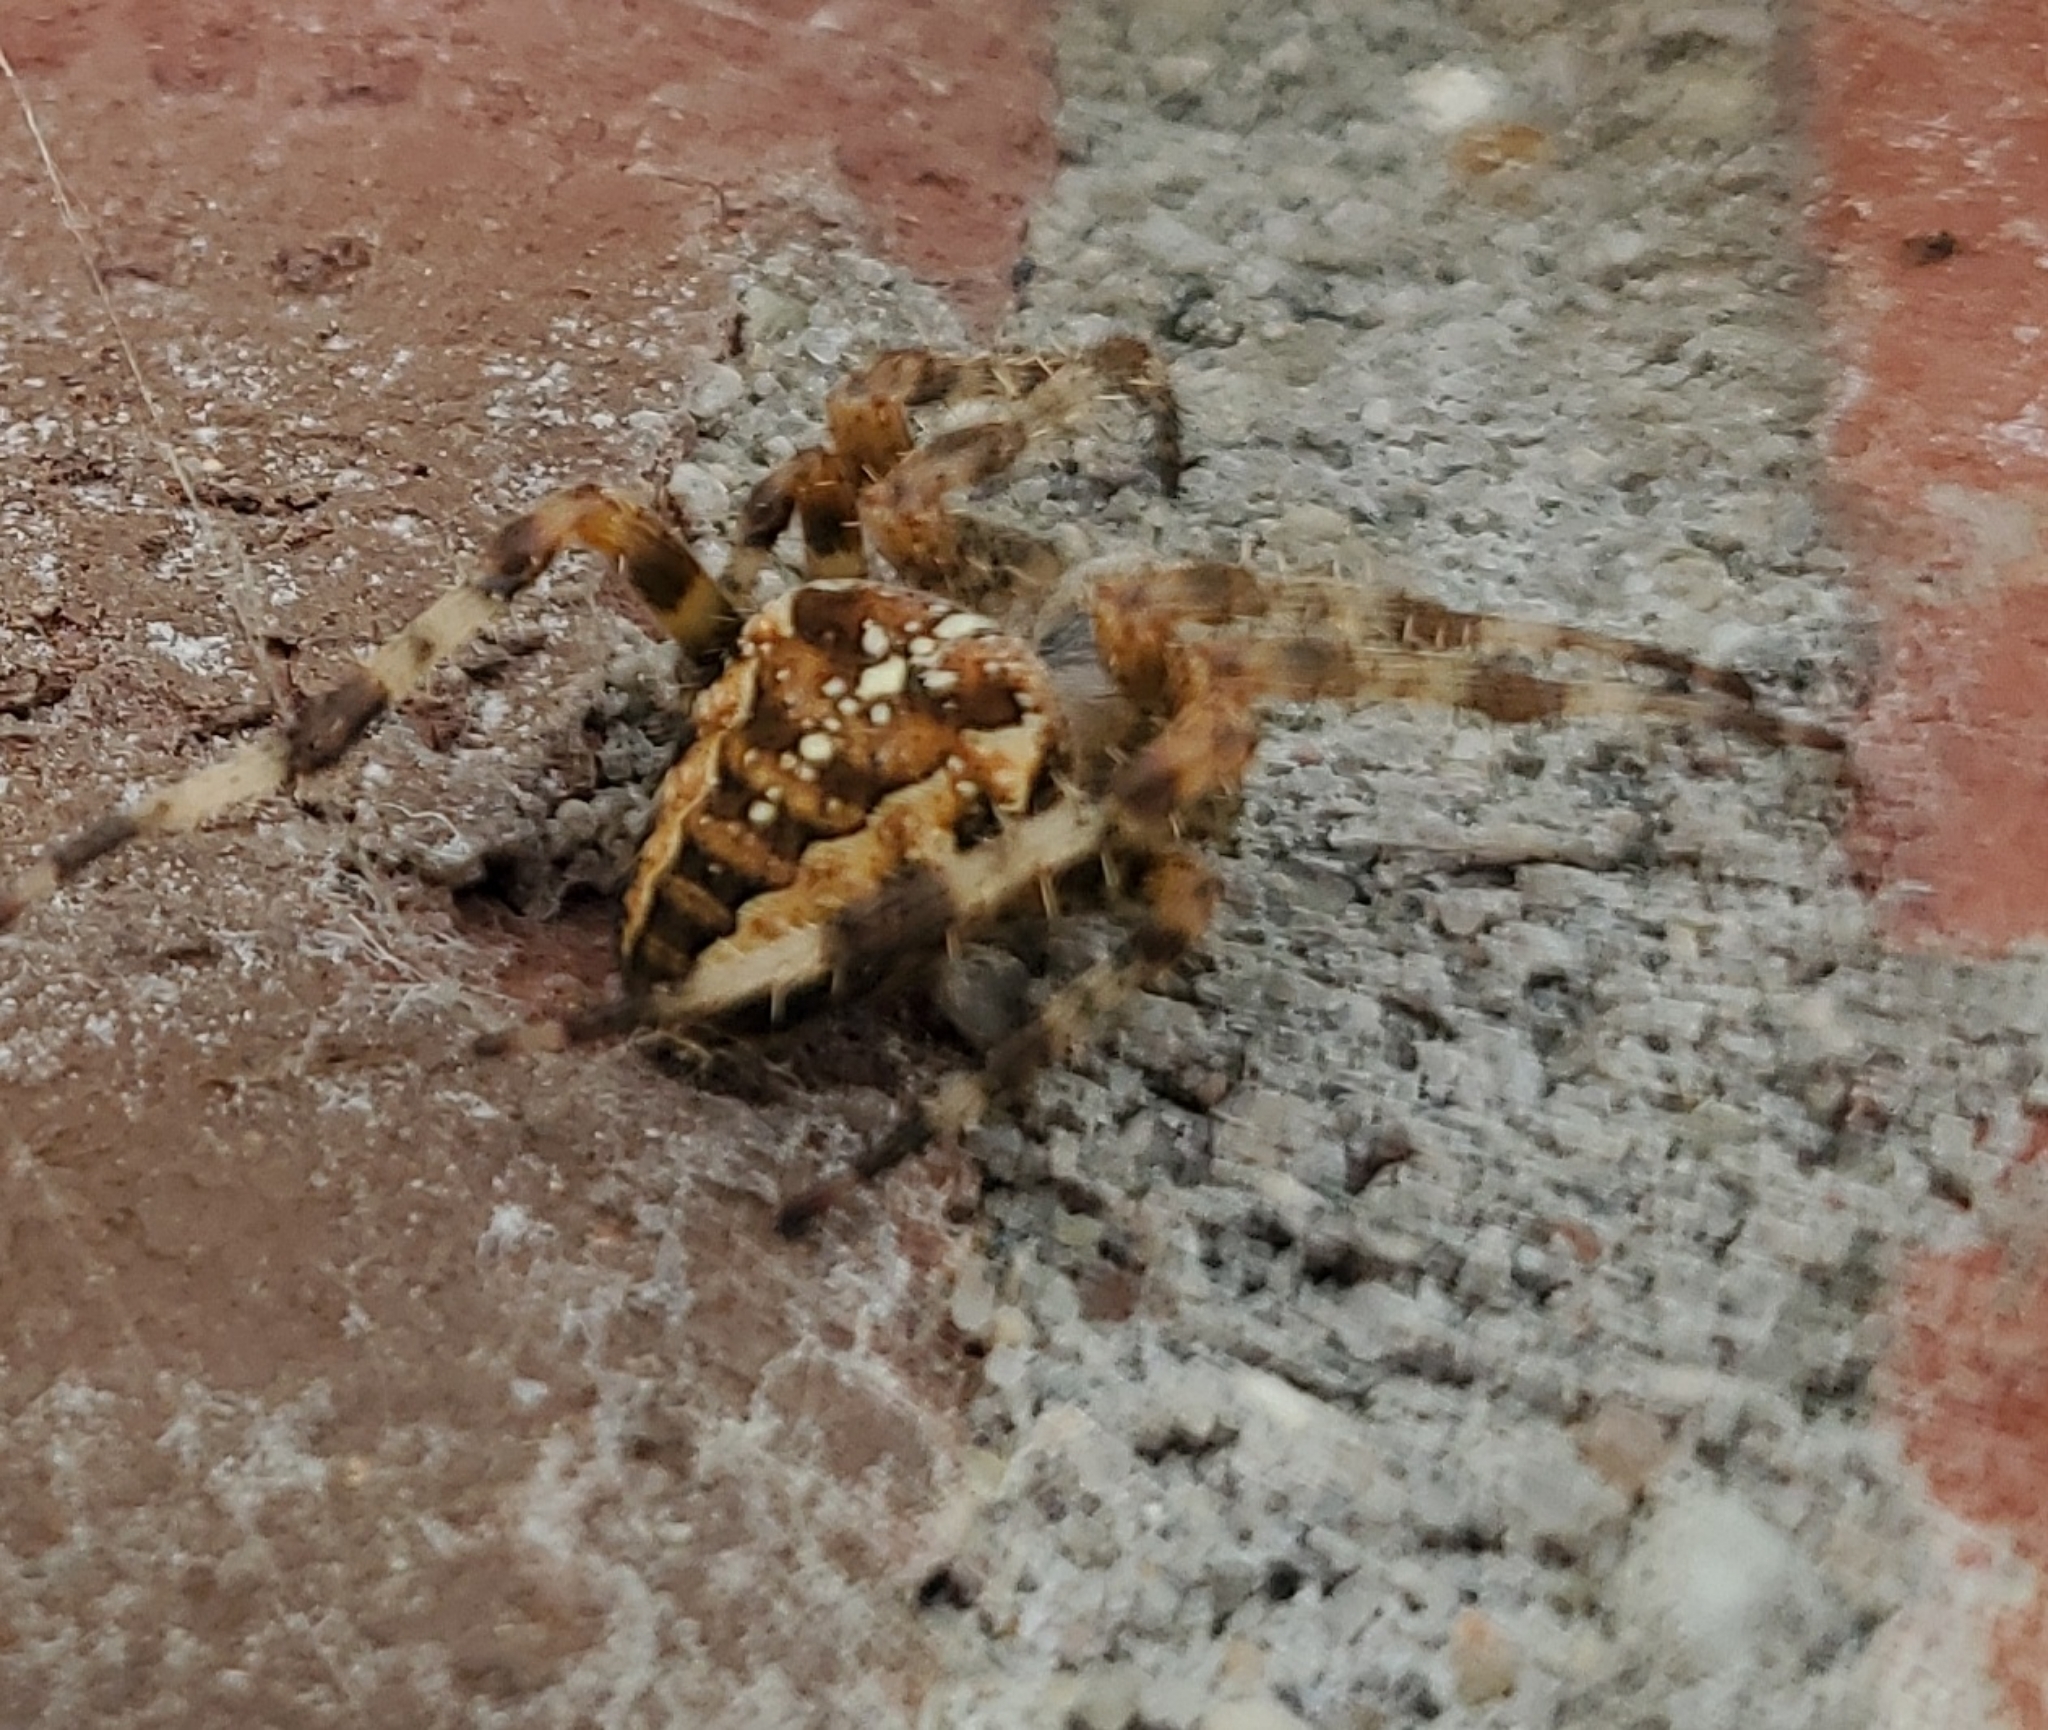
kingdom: Animalia
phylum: Arthropoda
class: Arachnida
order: Araneae
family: Araneidae
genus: Araneus
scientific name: Araneus diadematus
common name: Cross orbweaver
